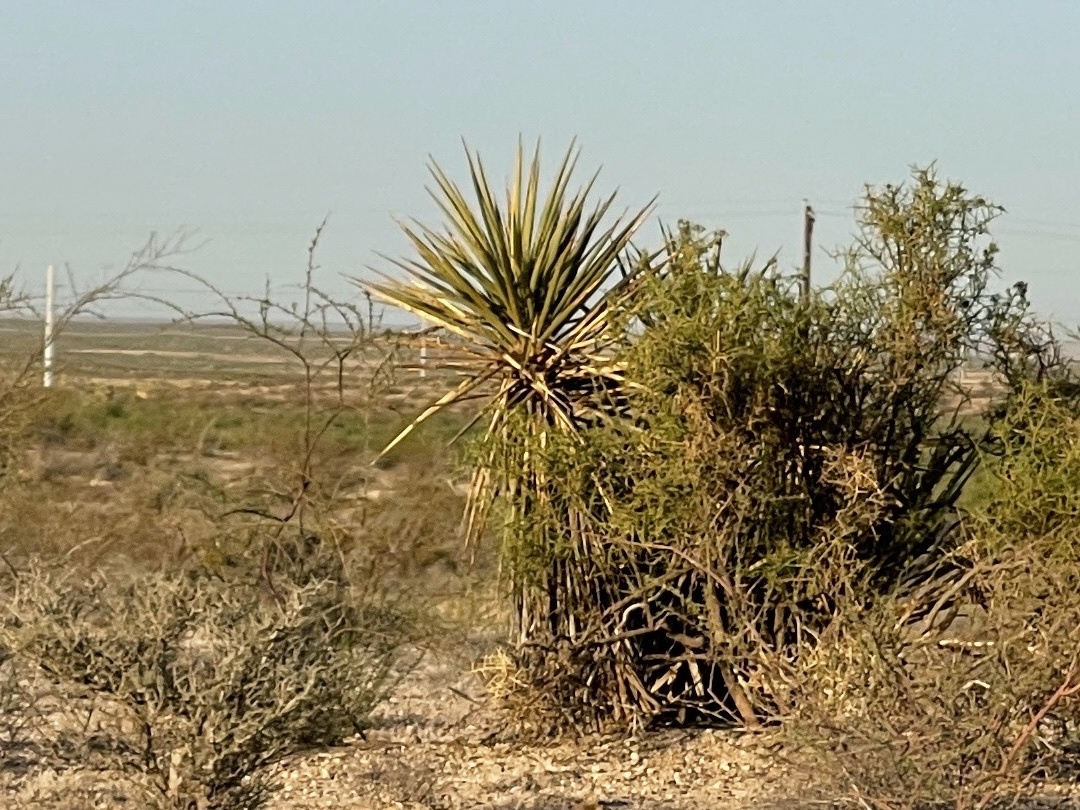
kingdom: Plantae
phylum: Tracheophyta
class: Liliopsida
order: Asparagales
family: Asparagaceae
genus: Yucca
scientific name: Yucca treculiana
